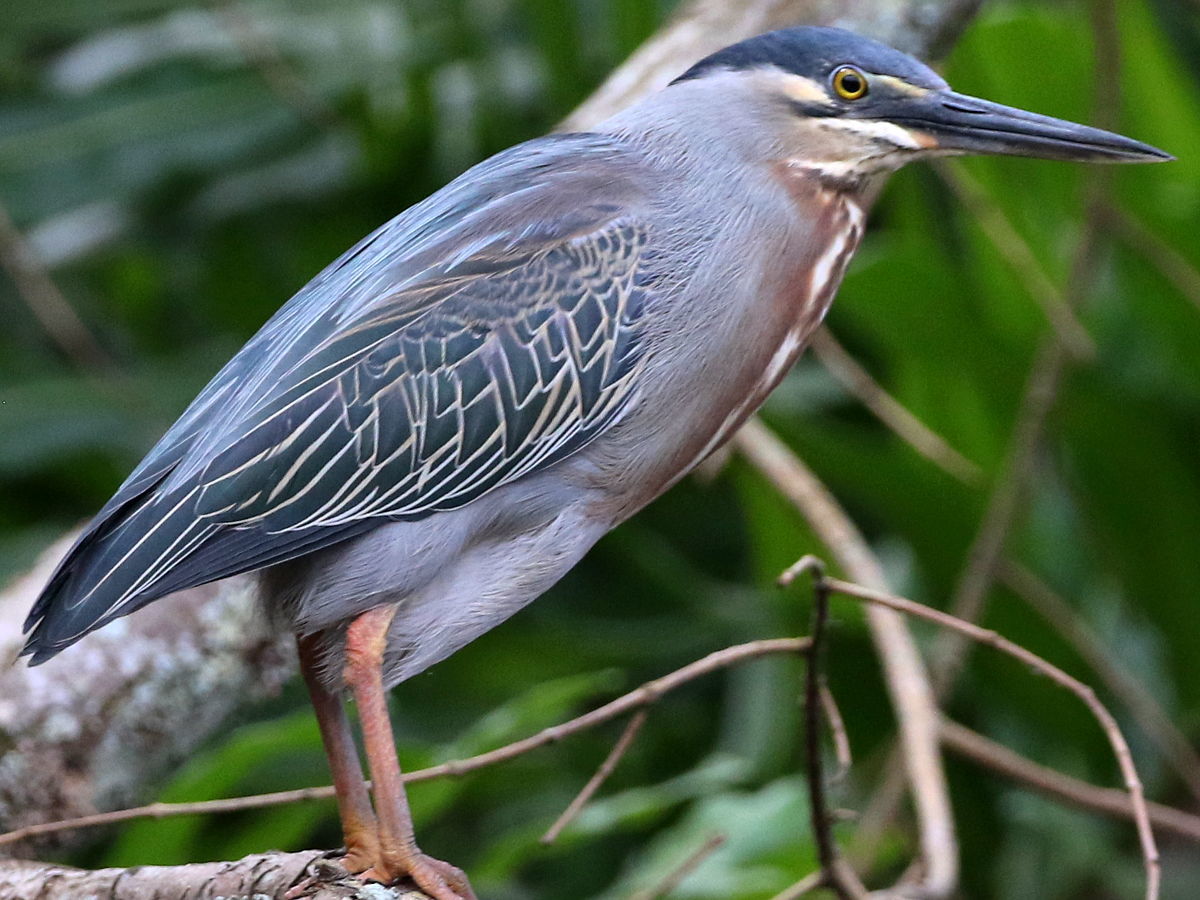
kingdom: Animalia
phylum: Chordata
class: Aves
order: Pelecaniformes
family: Ardeidae
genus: Butorides
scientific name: Butorides striata
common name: Striated heron
